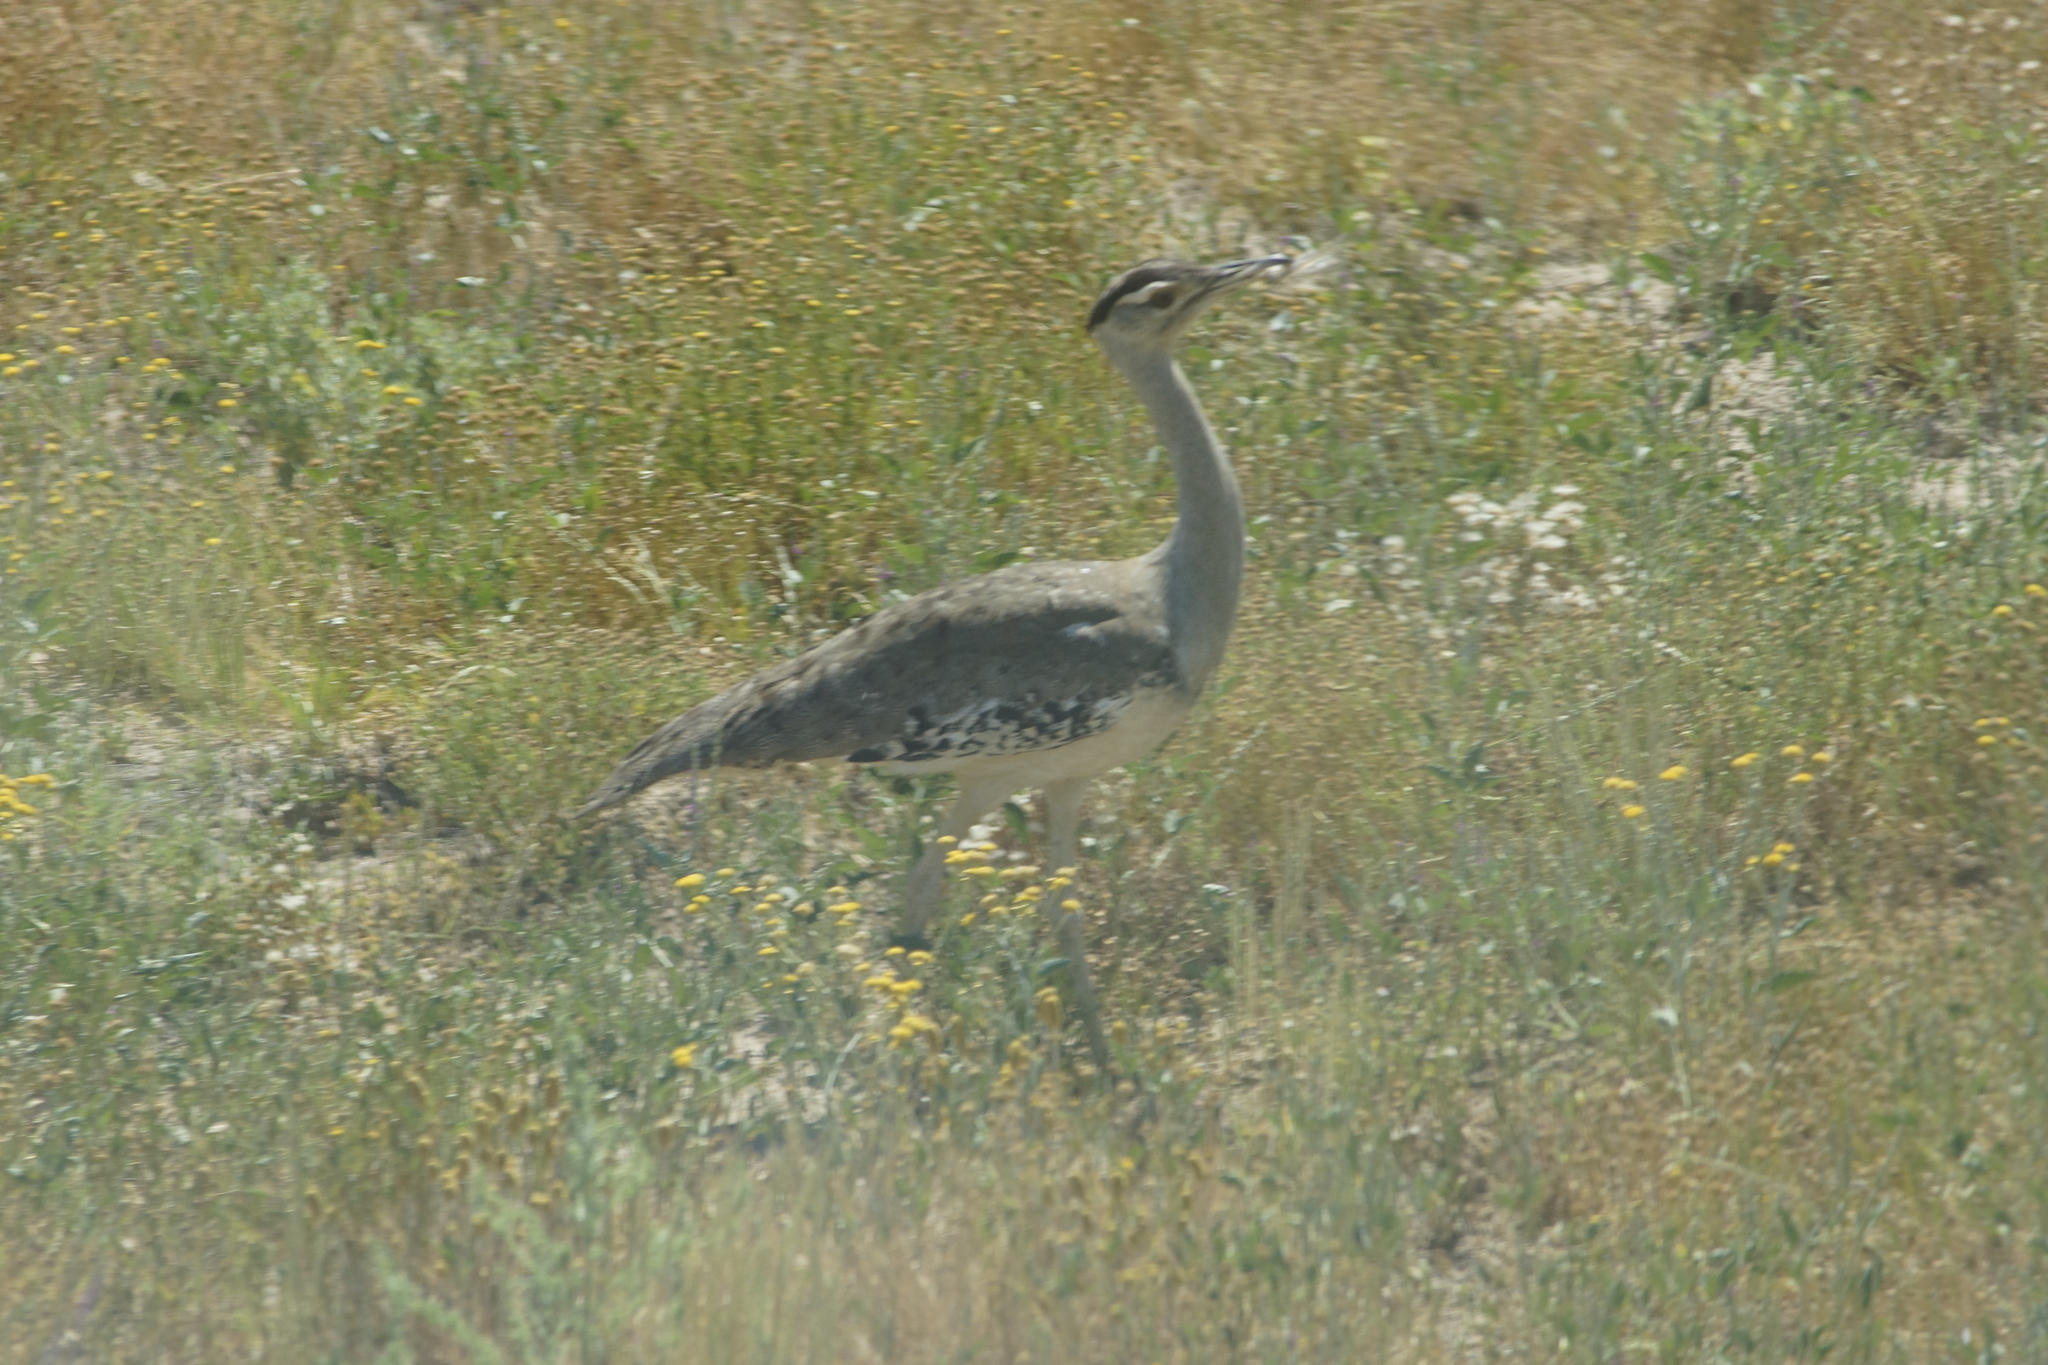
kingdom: Animalia
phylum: Chordata
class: Aves
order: Otidiformes
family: Otididae
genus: Ardeotis
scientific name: Ardeotis australis
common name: Australian bustard
